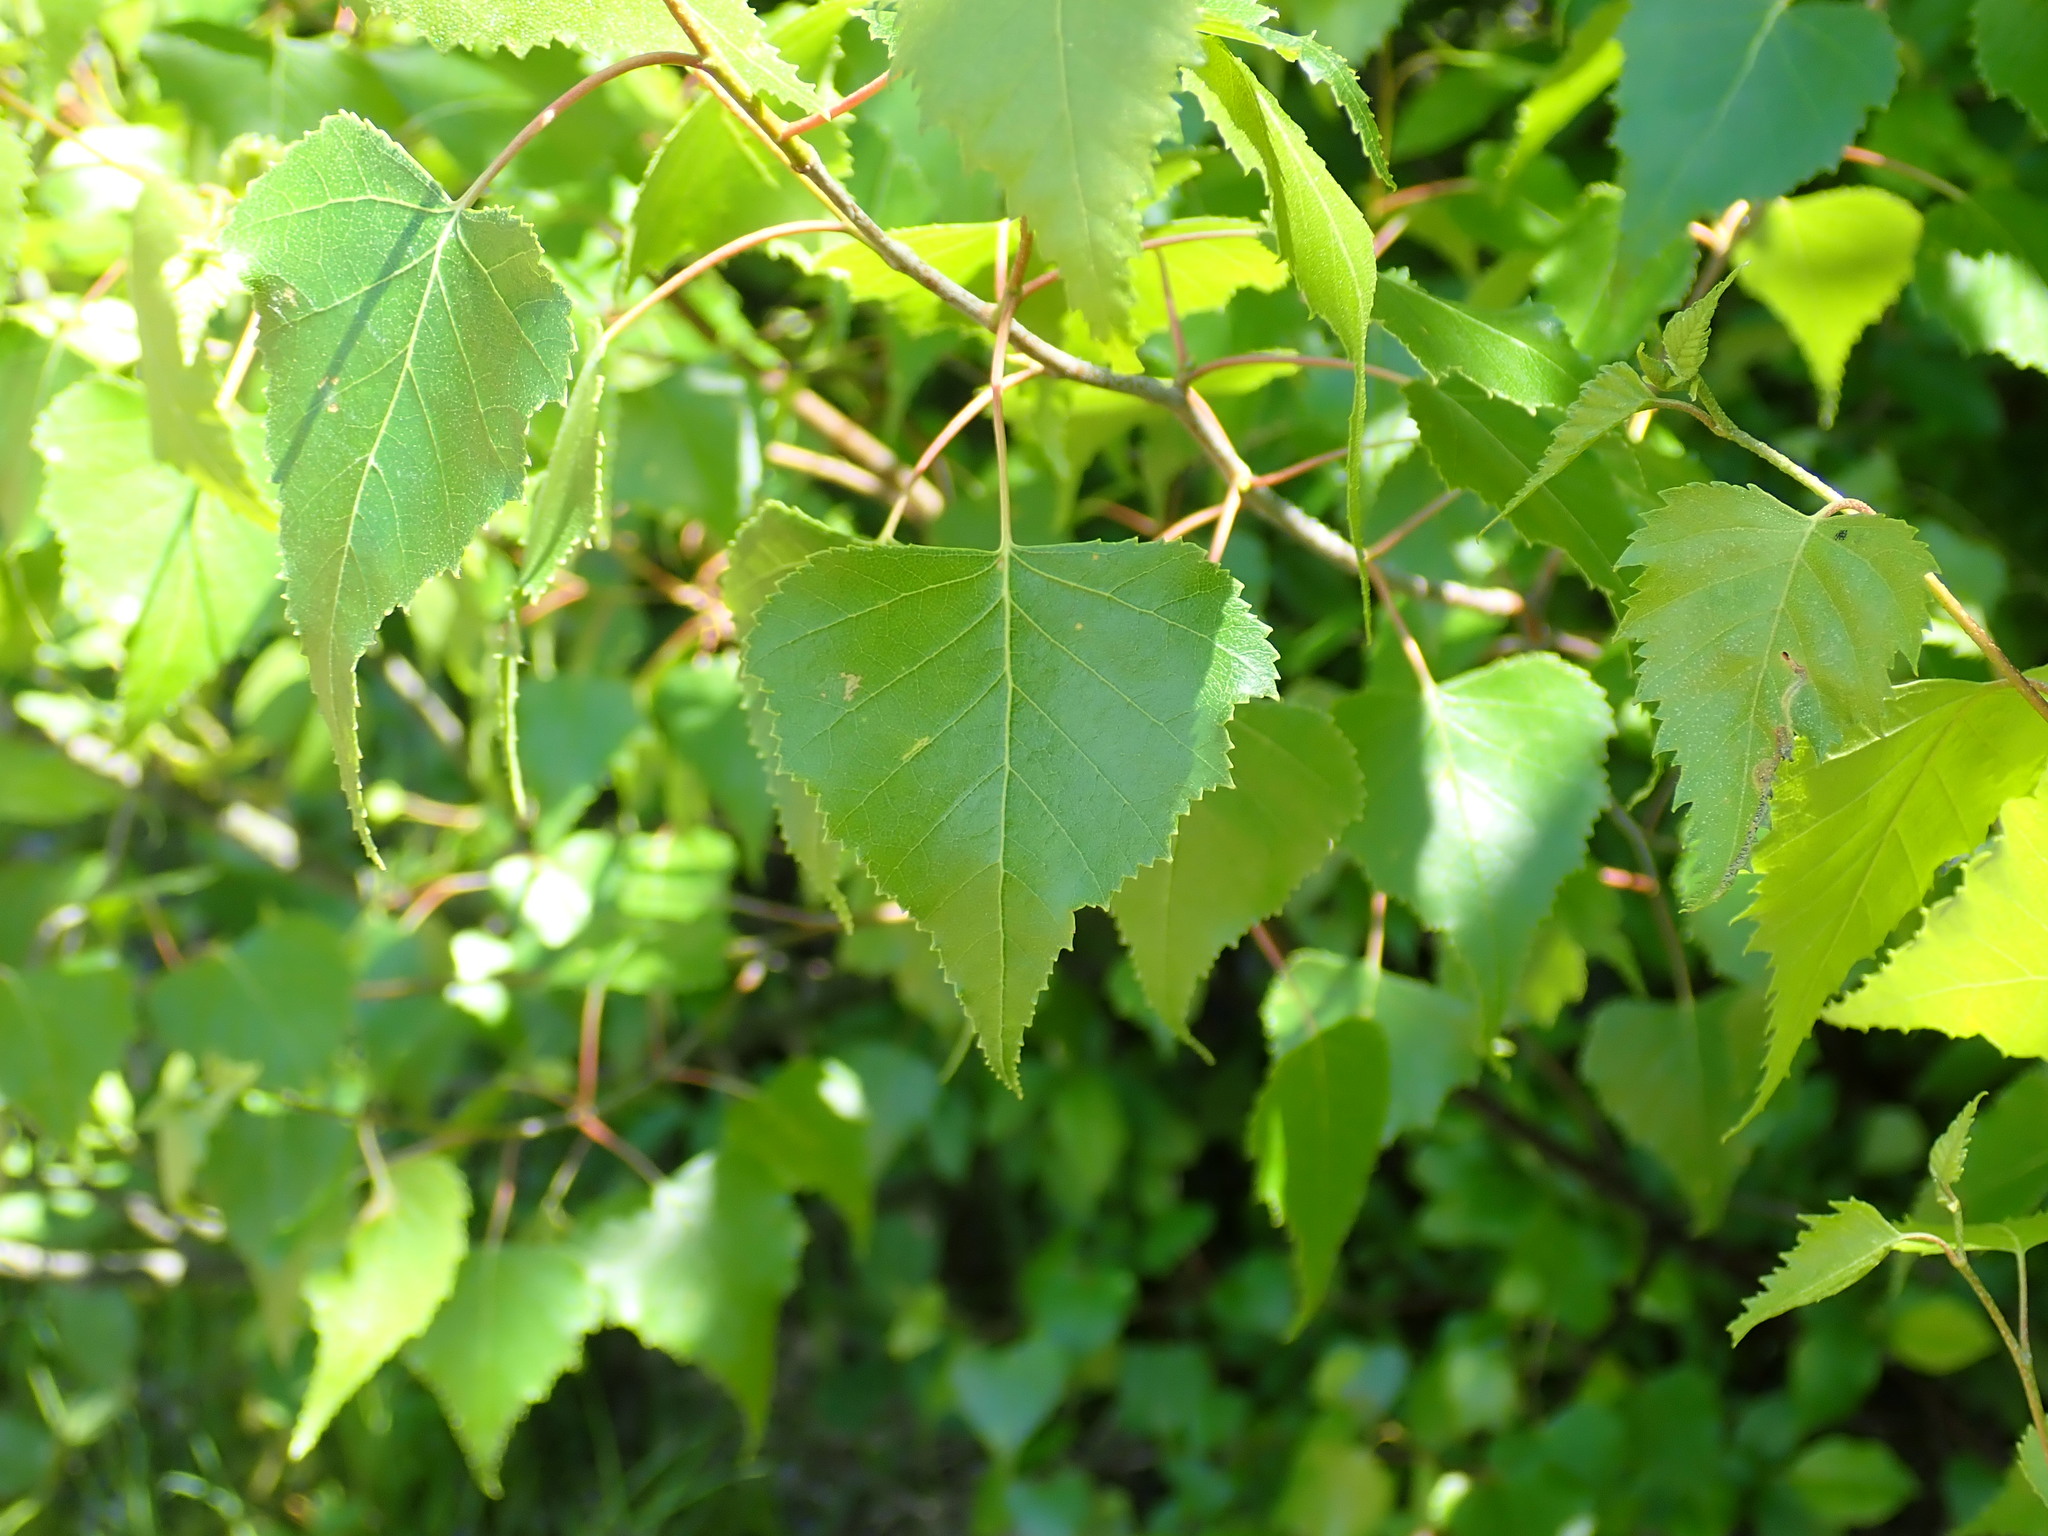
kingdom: Plantae
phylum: Tracheophyta
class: Magnoliopsida
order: Fagales
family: Betulaceae
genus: Betula
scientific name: Betula populifolia
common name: Fire birch
